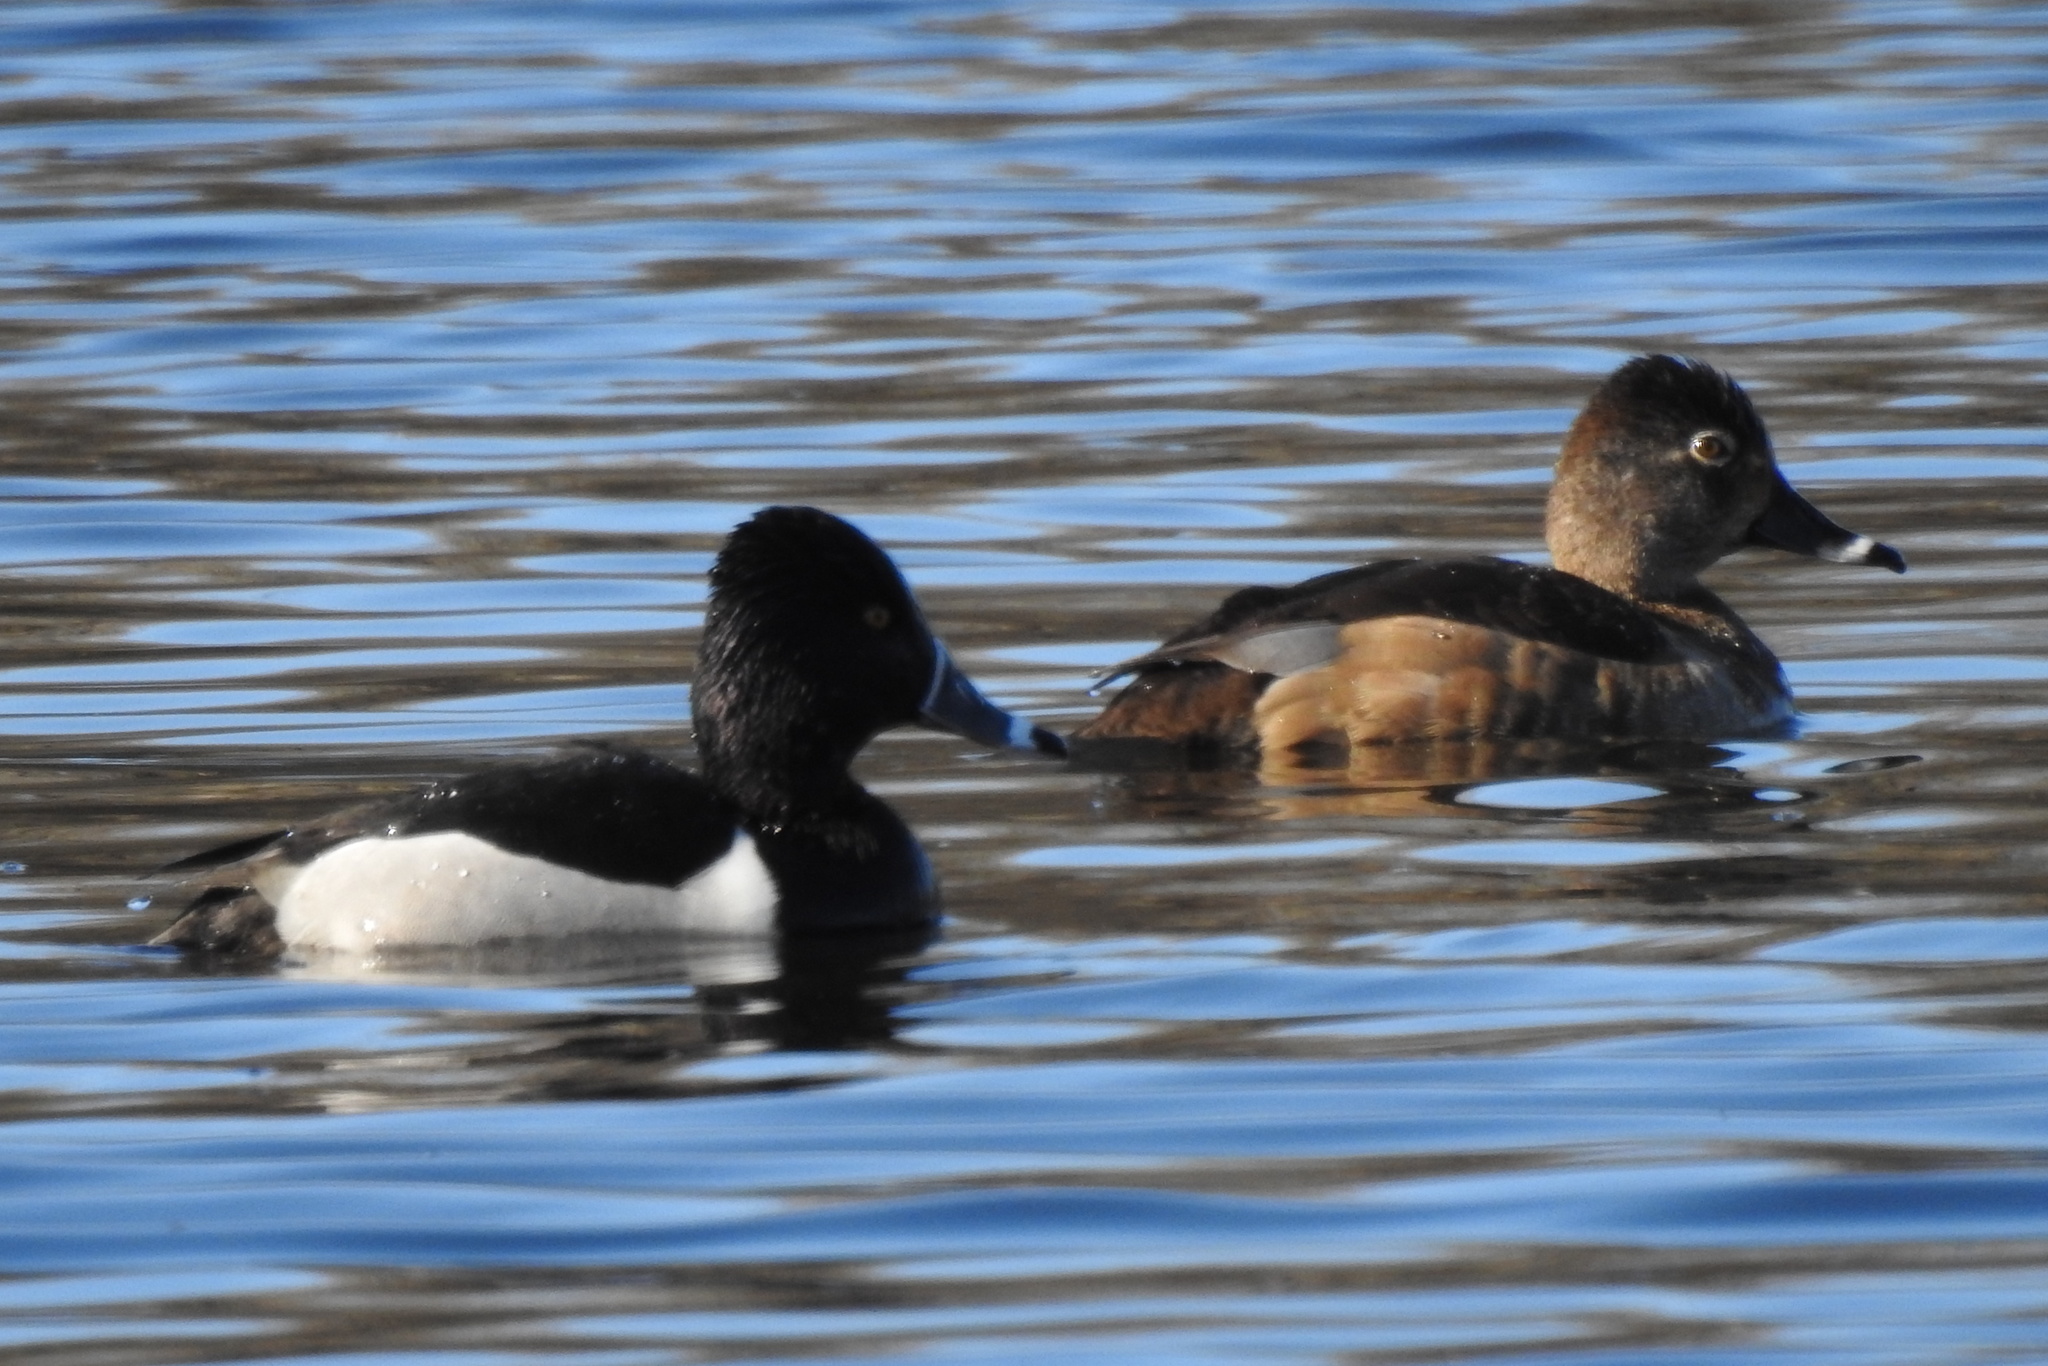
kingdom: Animalia
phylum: Chordata
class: Aves
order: Anseriformes
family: Anatidae
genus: Aythya
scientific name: Aythya collaris
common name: Ring-necked duck
